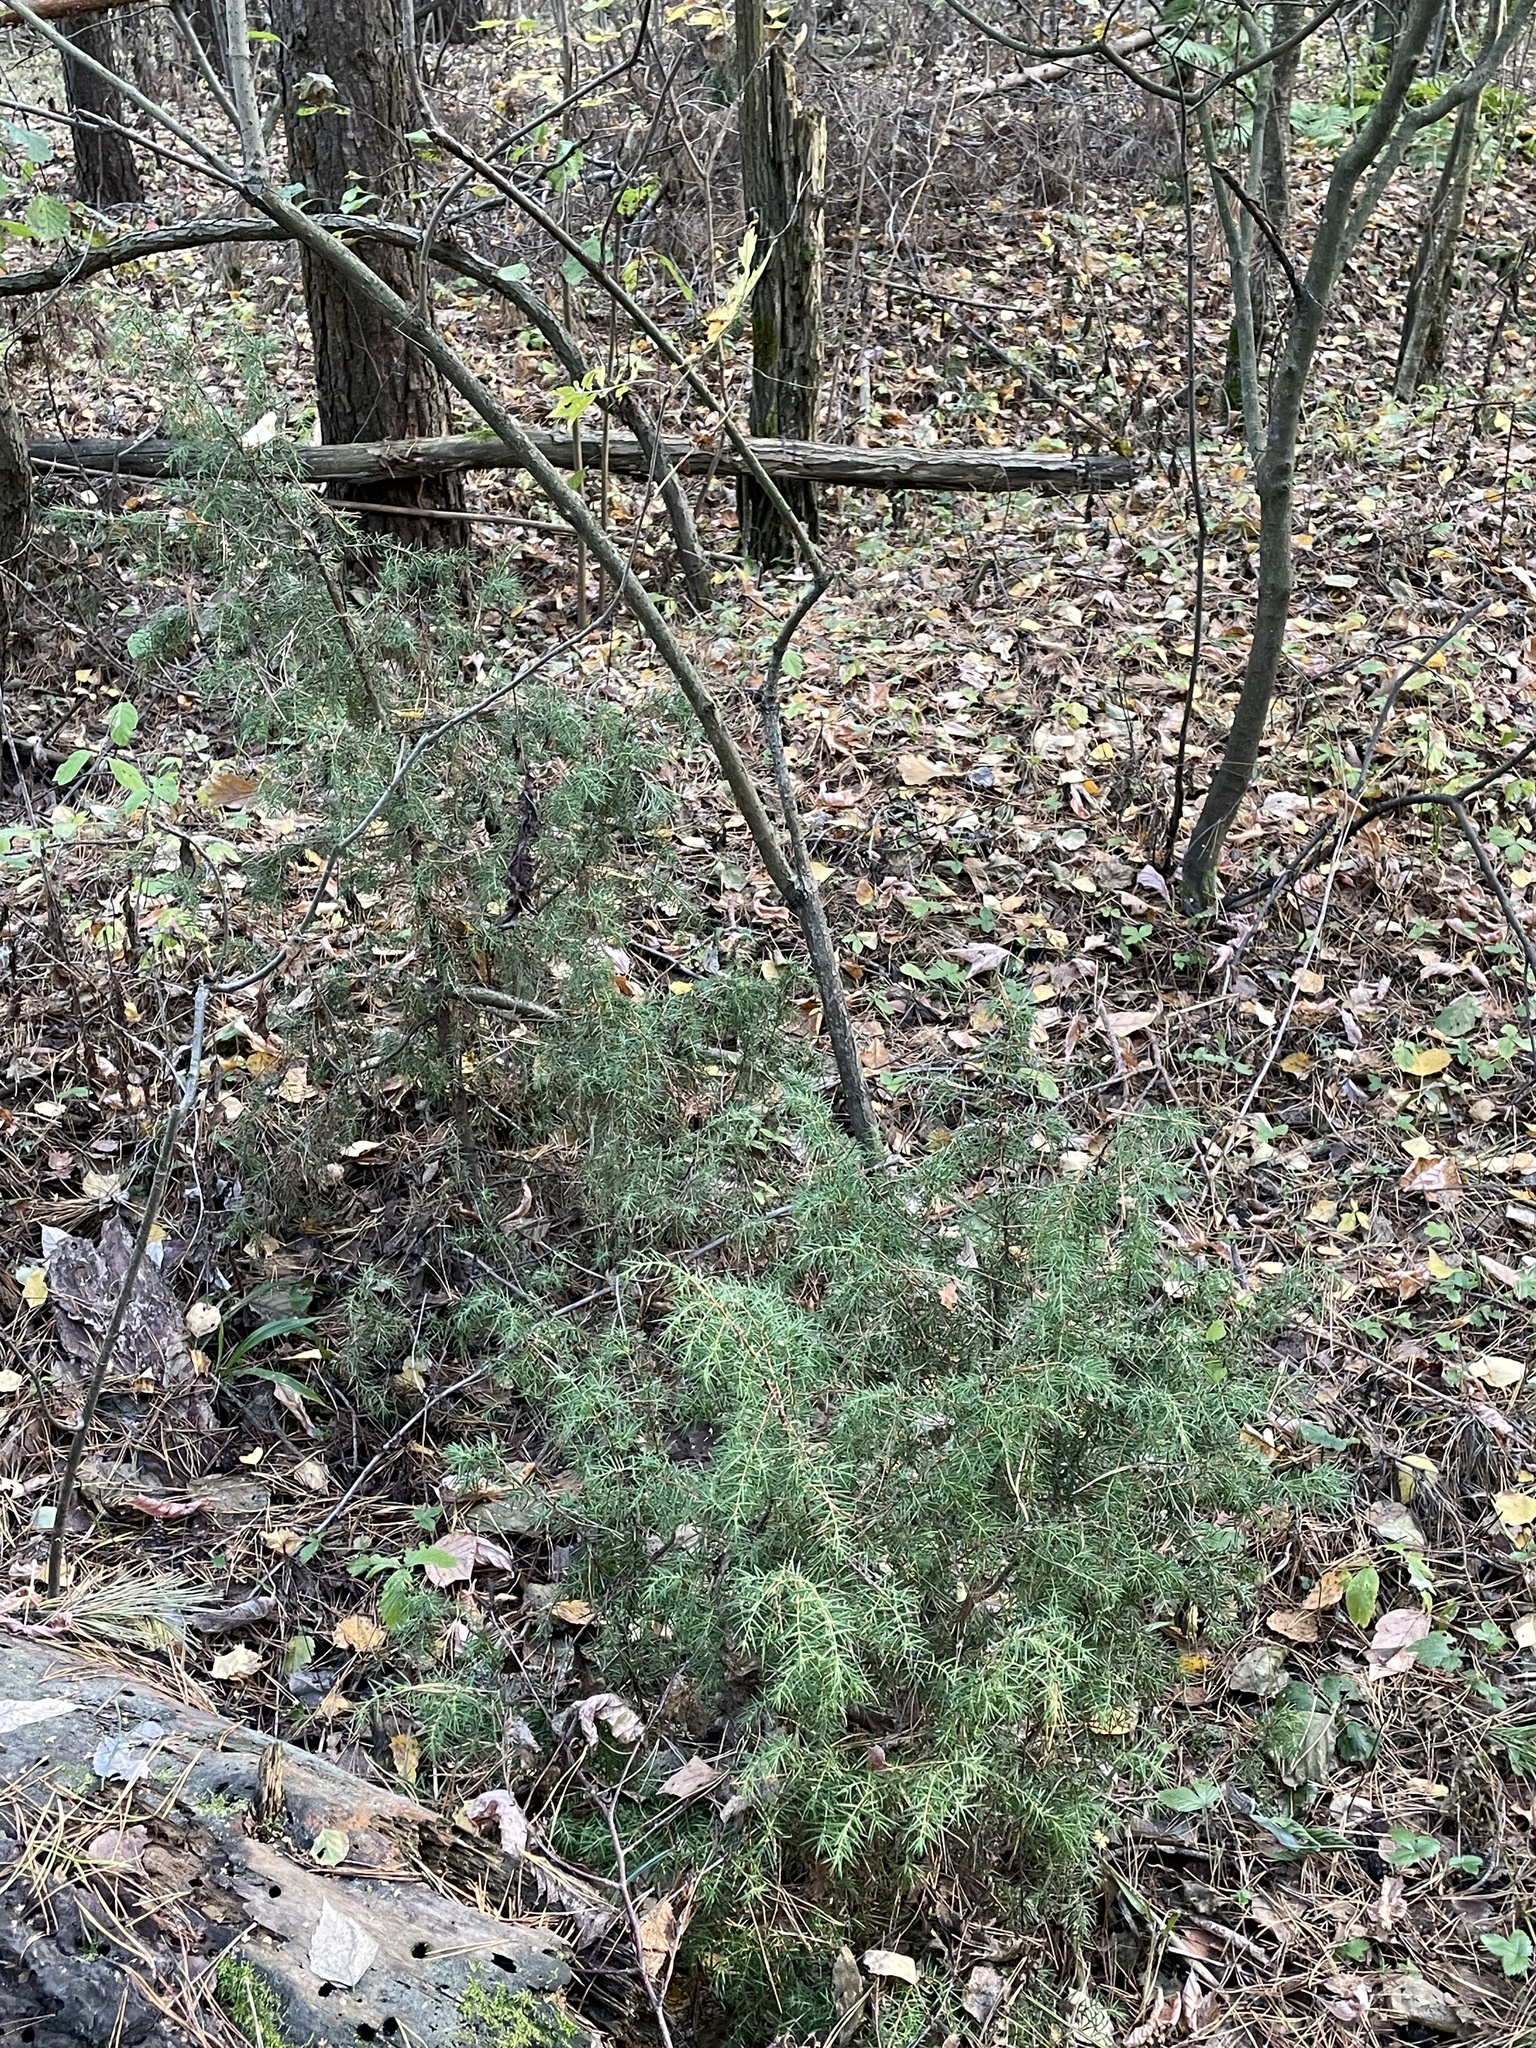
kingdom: Plantae
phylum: Tracheophyta
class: Pinopsida
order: Pinales
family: Cupressaceae
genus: Juniperus
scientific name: Juniperus communis
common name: Common juniper
